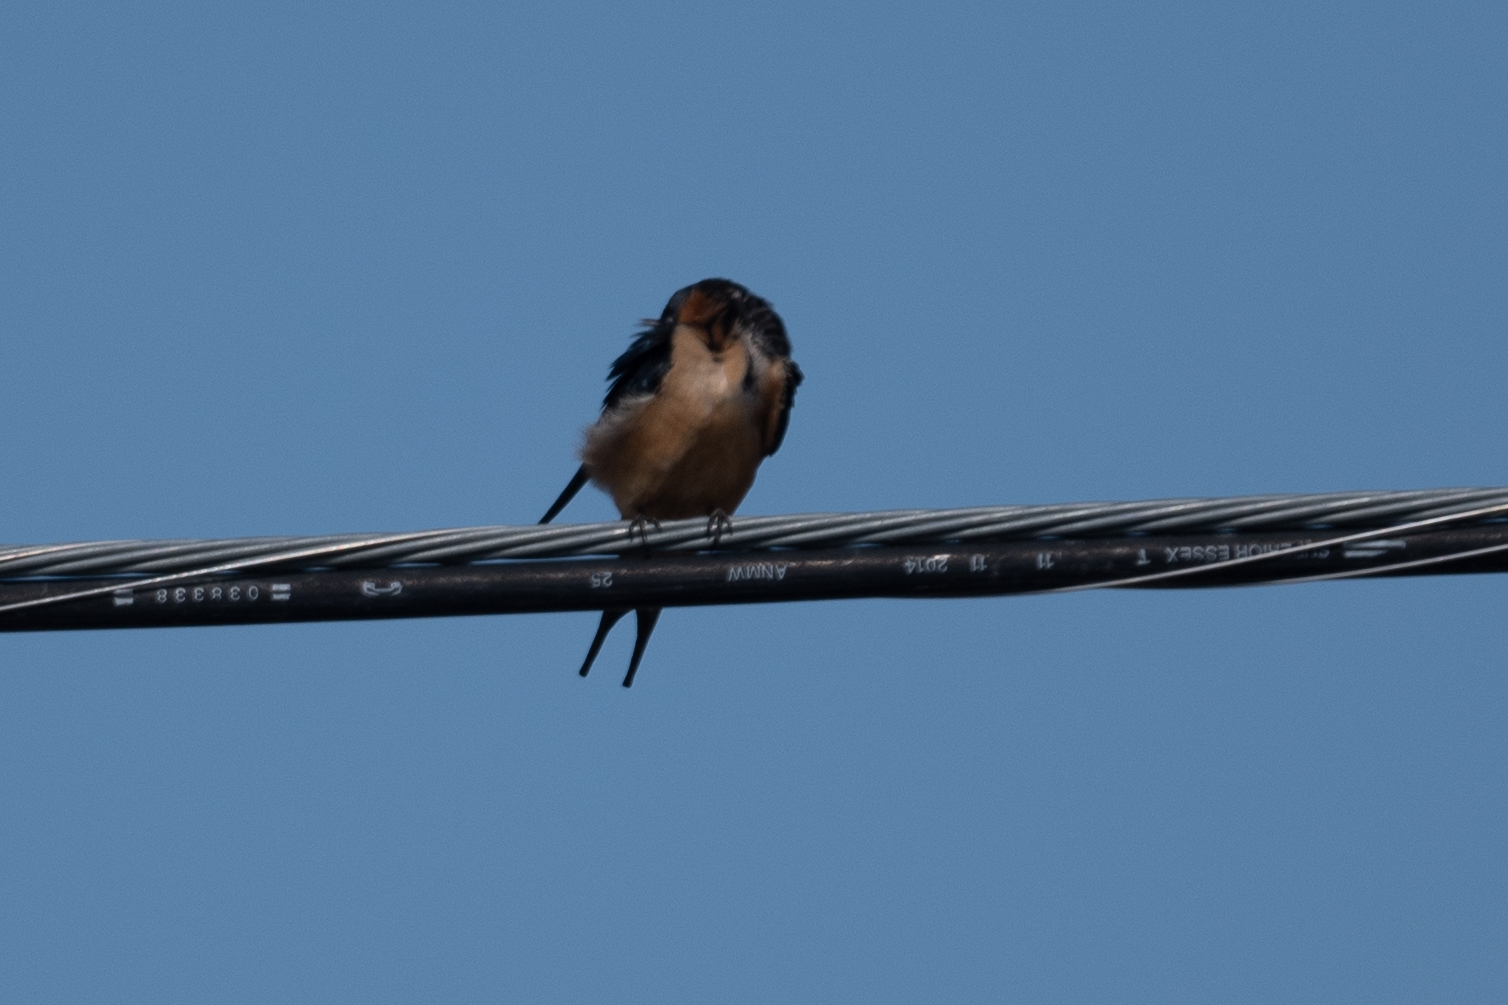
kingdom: Animalia
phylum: Chordata
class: Aves
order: Passeriformes
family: Hirundinidae
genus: Hirundo
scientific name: Hirundo rustica
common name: Barn swallow
